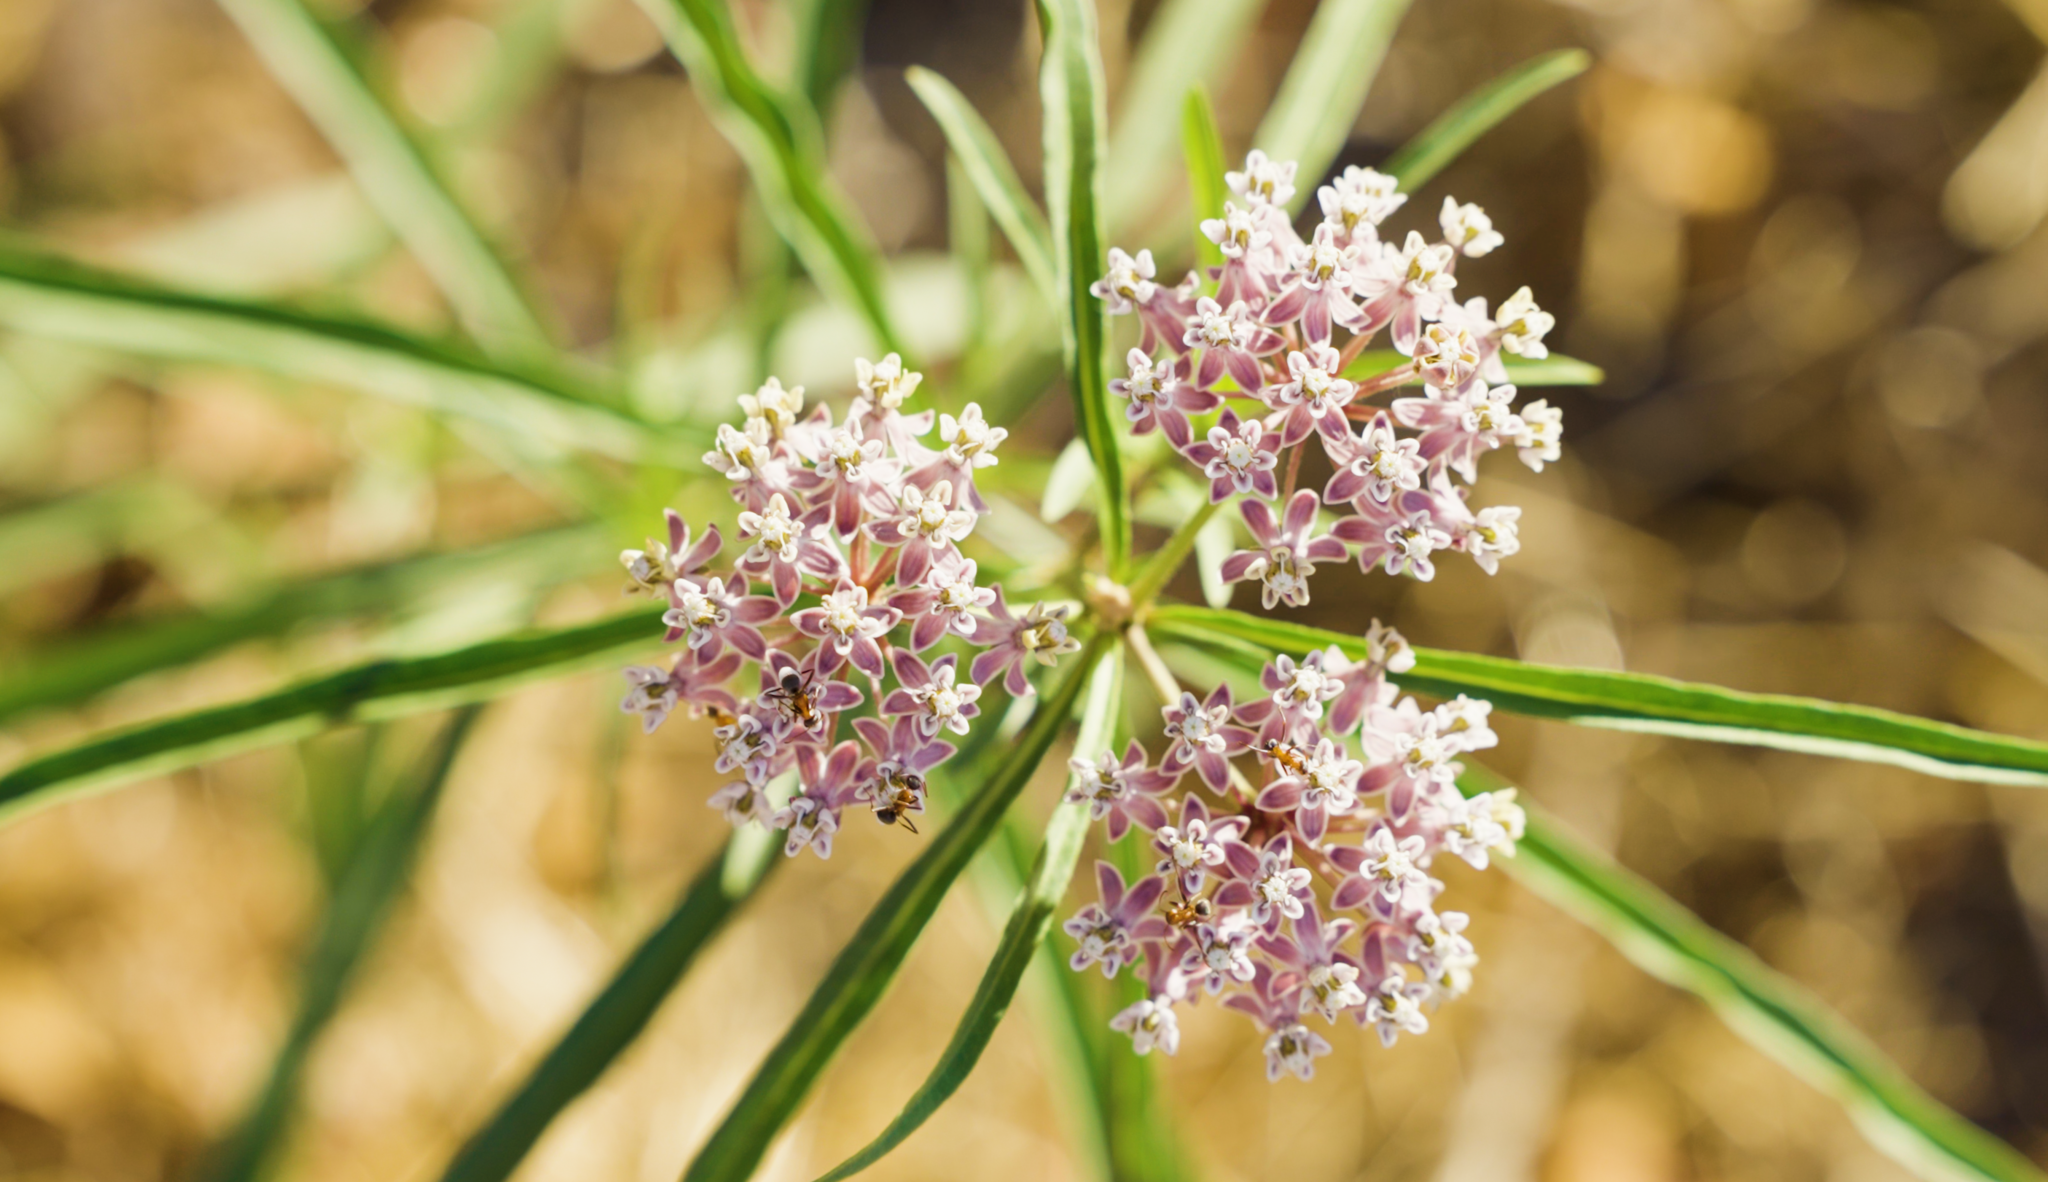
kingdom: Plantae
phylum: Tracheophyta
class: Magnoliopsida
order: Gentianales
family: Apocynaceae
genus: Asclepias
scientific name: Asclepias fascicularis
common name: Mexican milkweed
